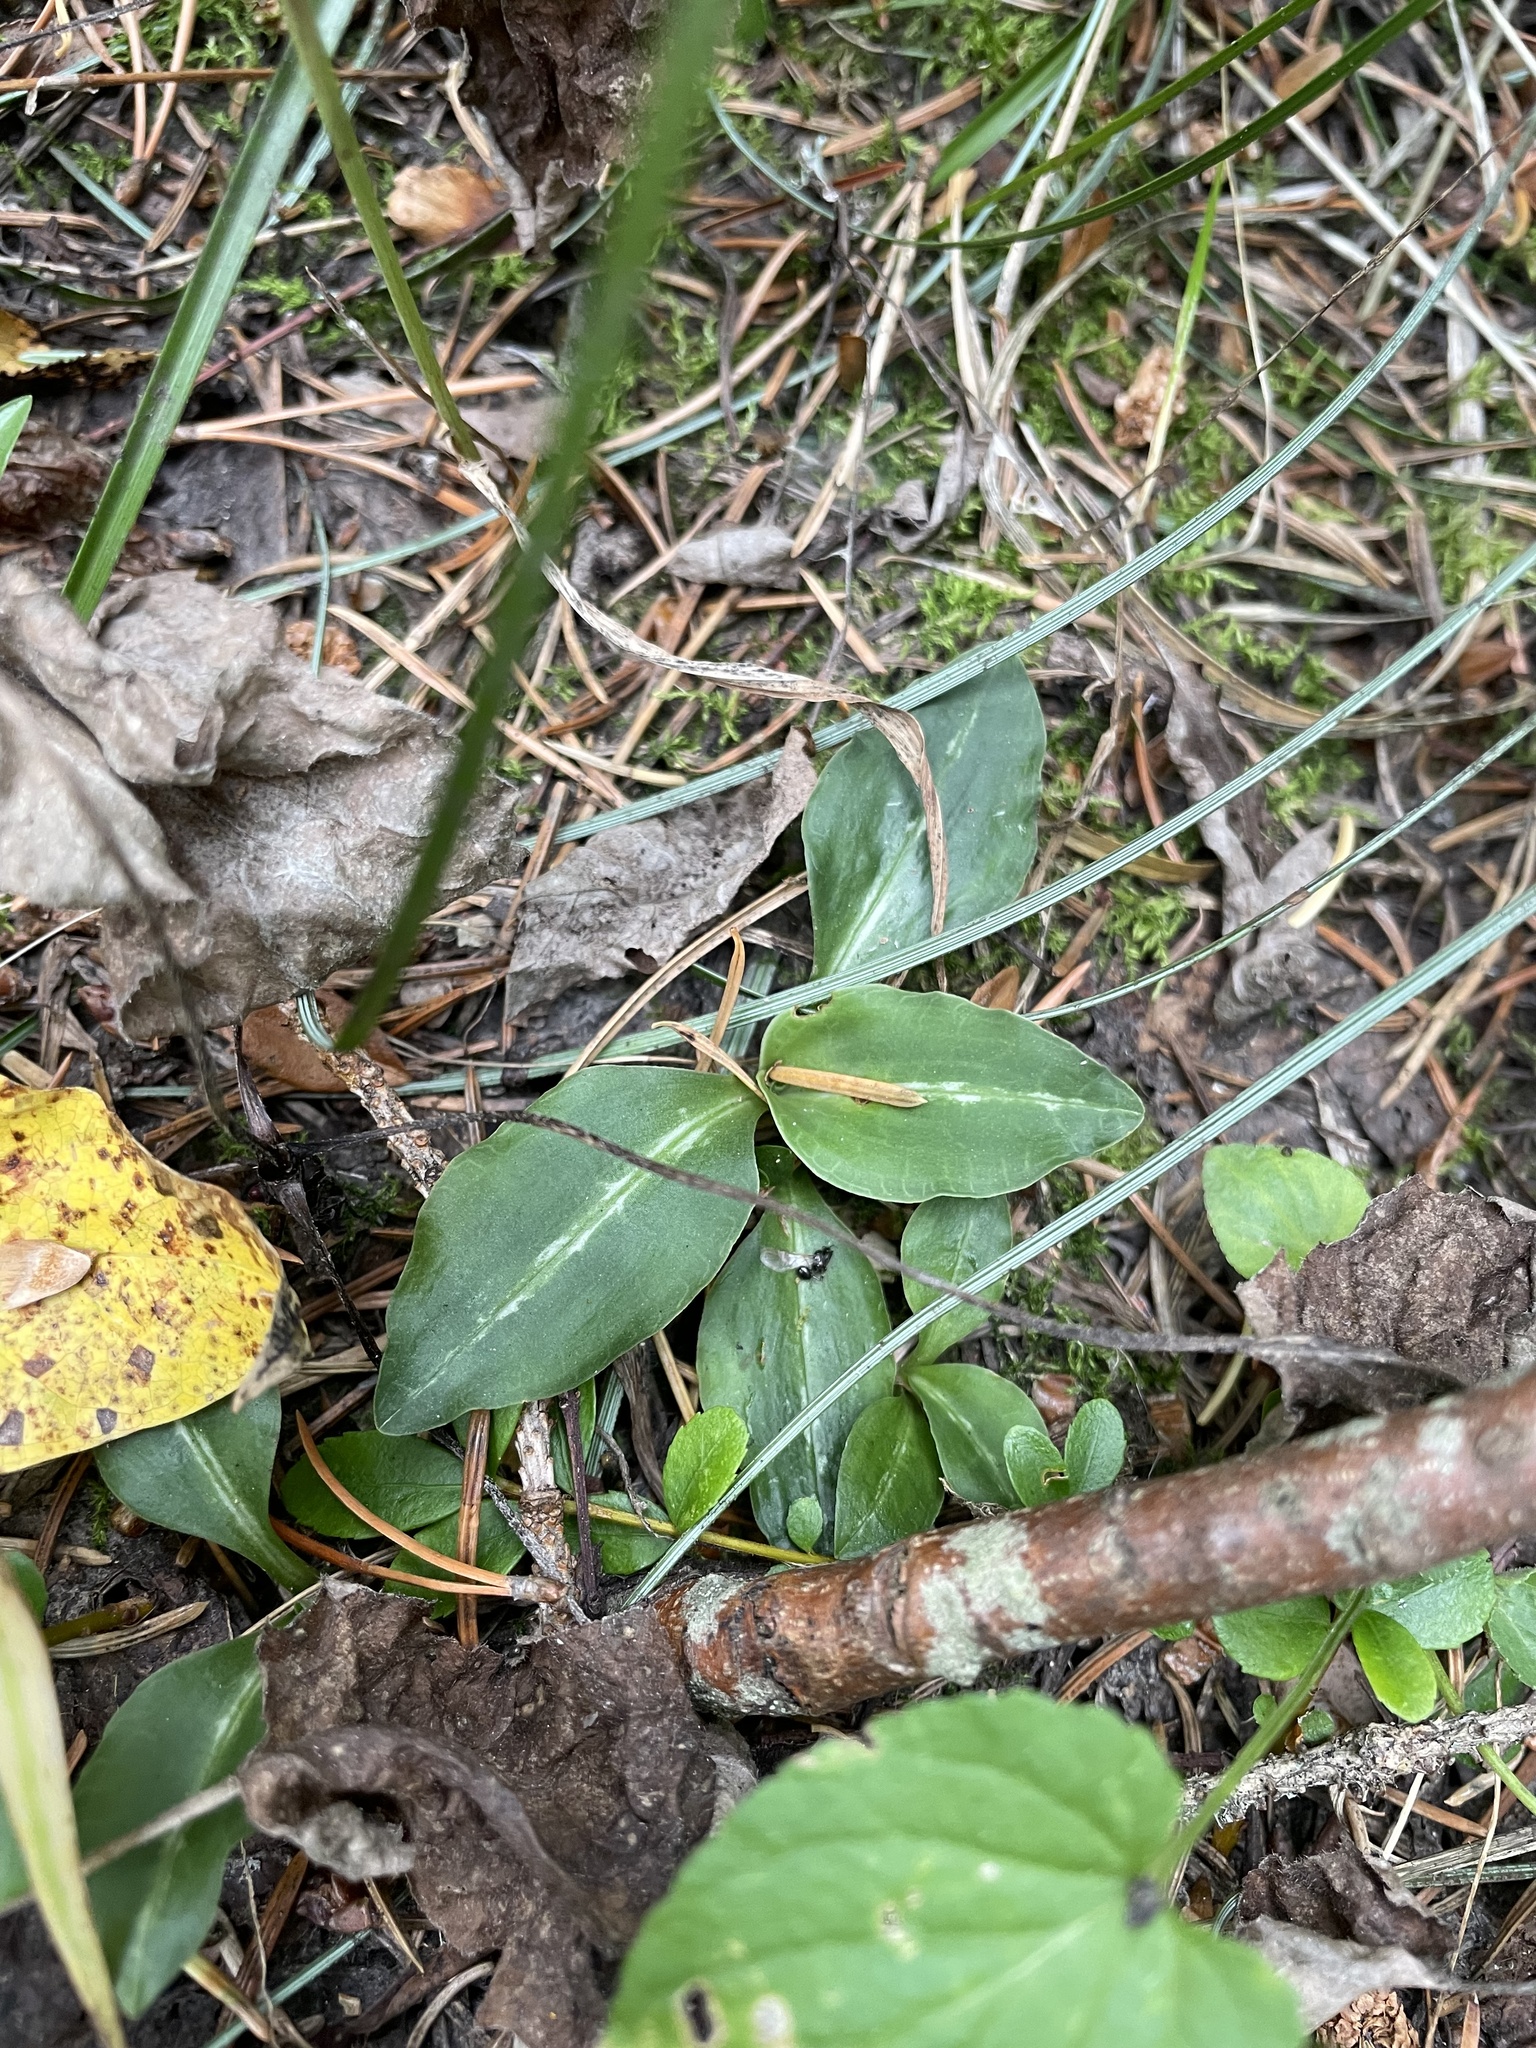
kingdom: Plantae
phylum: Tracheophyta
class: Liliopsida
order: Asparagales
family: Orchidaceae
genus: Goodyera
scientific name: Goodyera oblongifolia
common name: Giant rattlesnake-plantain
